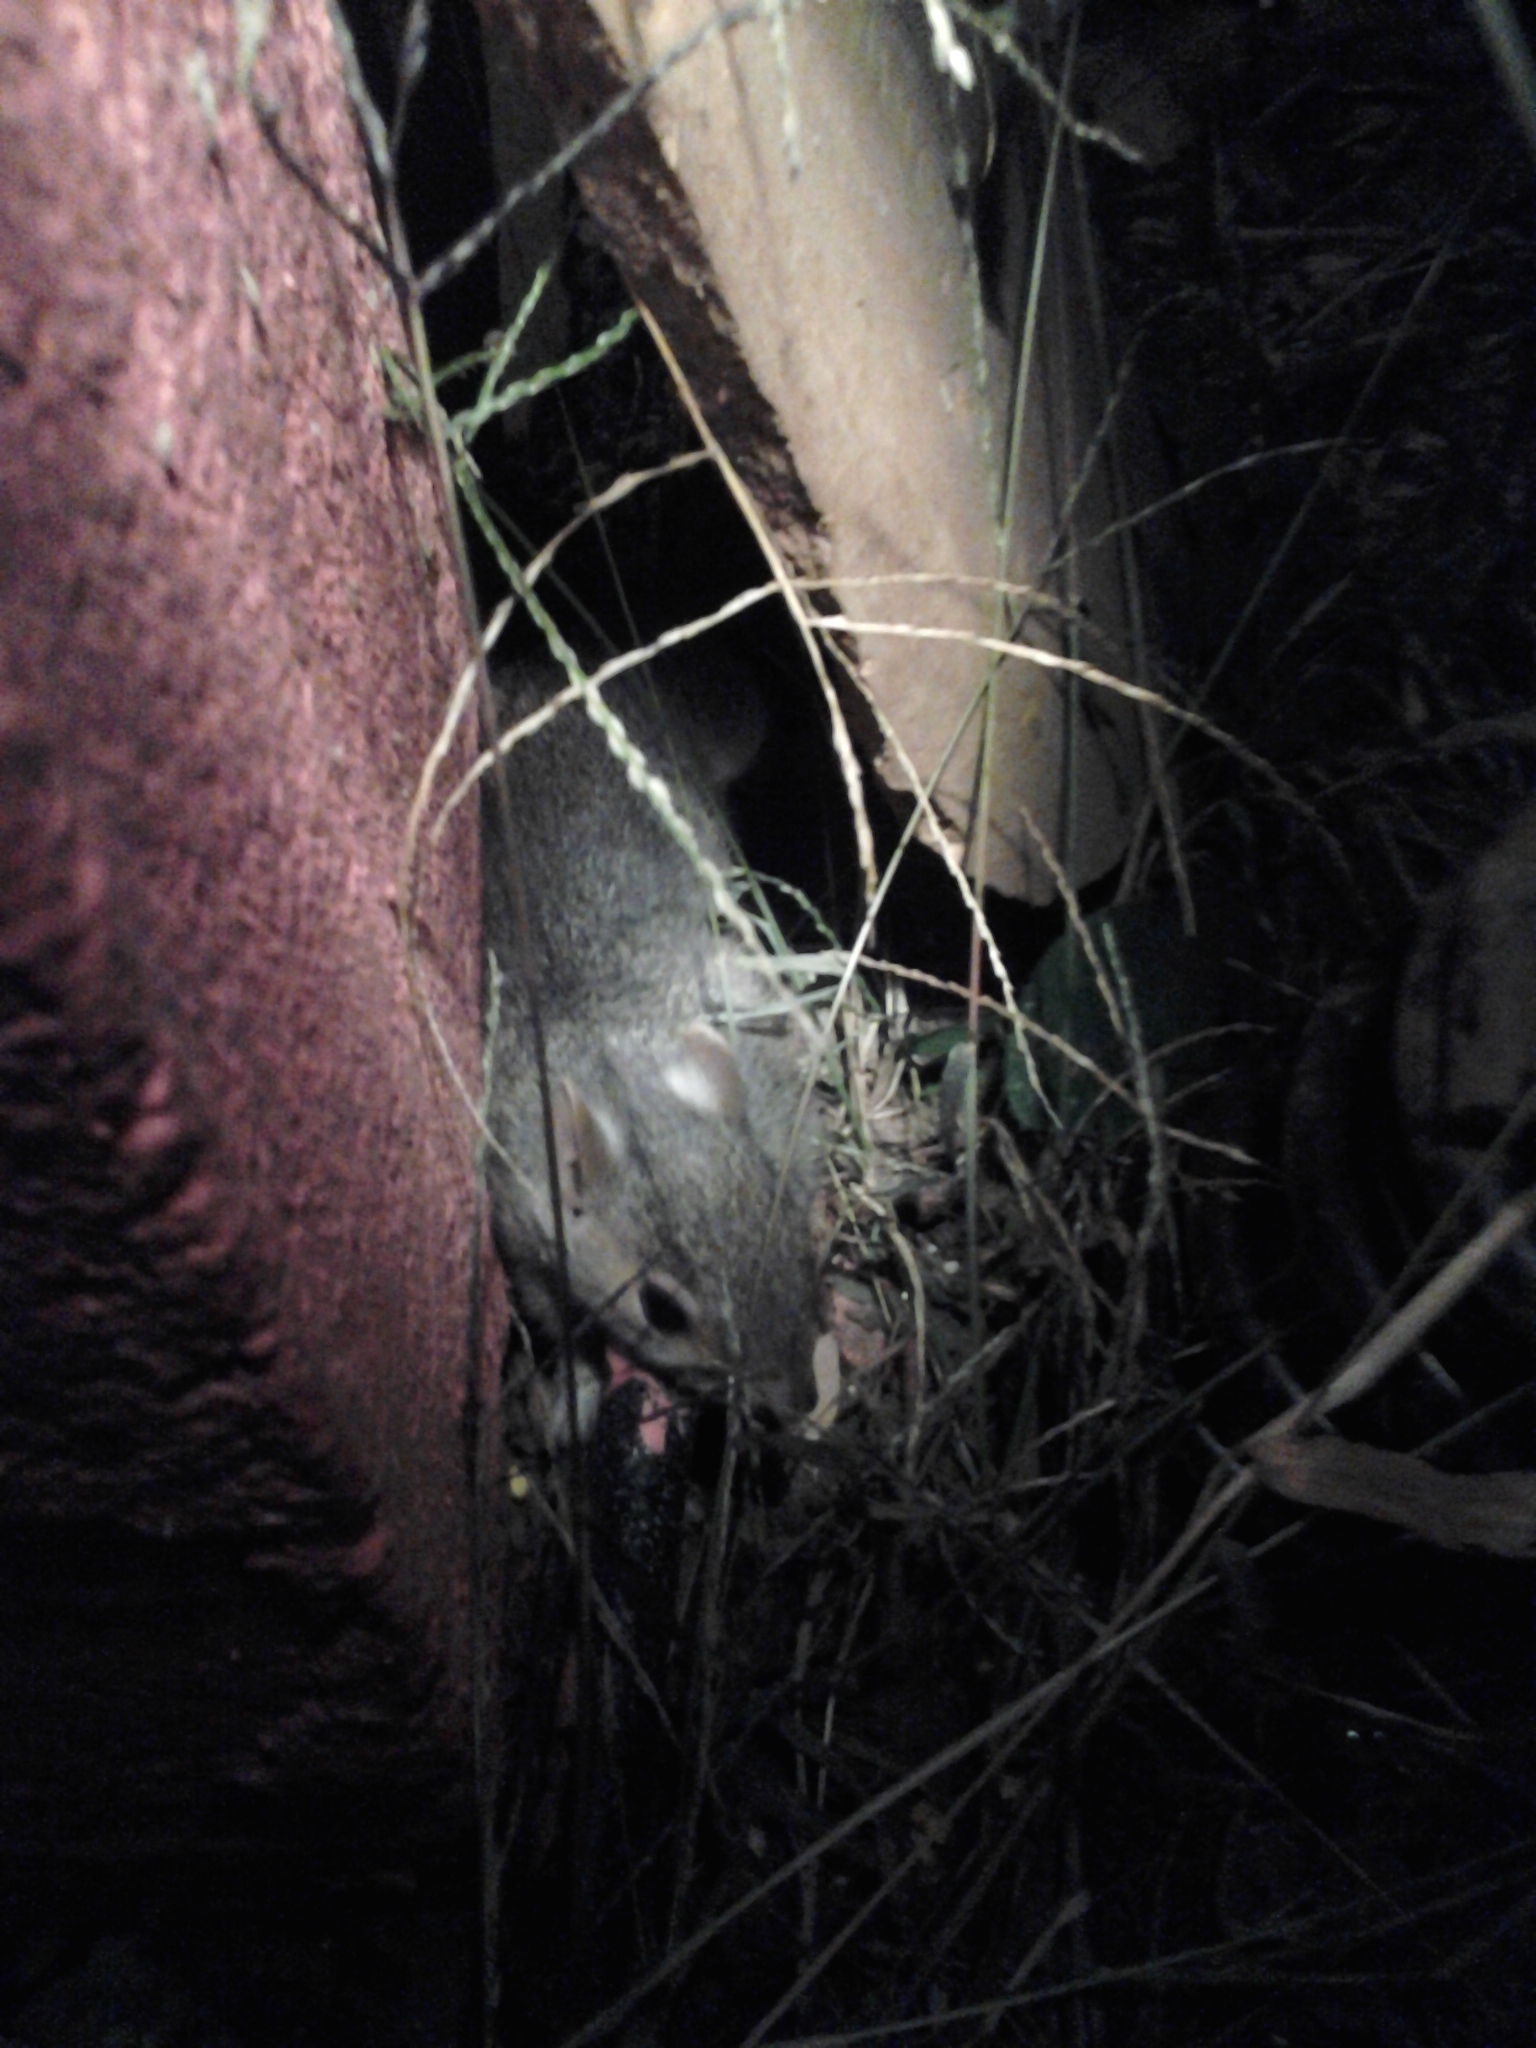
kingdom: Animalia
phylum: Chordata
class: Mammalia
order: Rodentia
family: Sciuridae
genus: Sciurus
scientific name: Sciurus carolinensis
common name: Eastern gray squirrel
